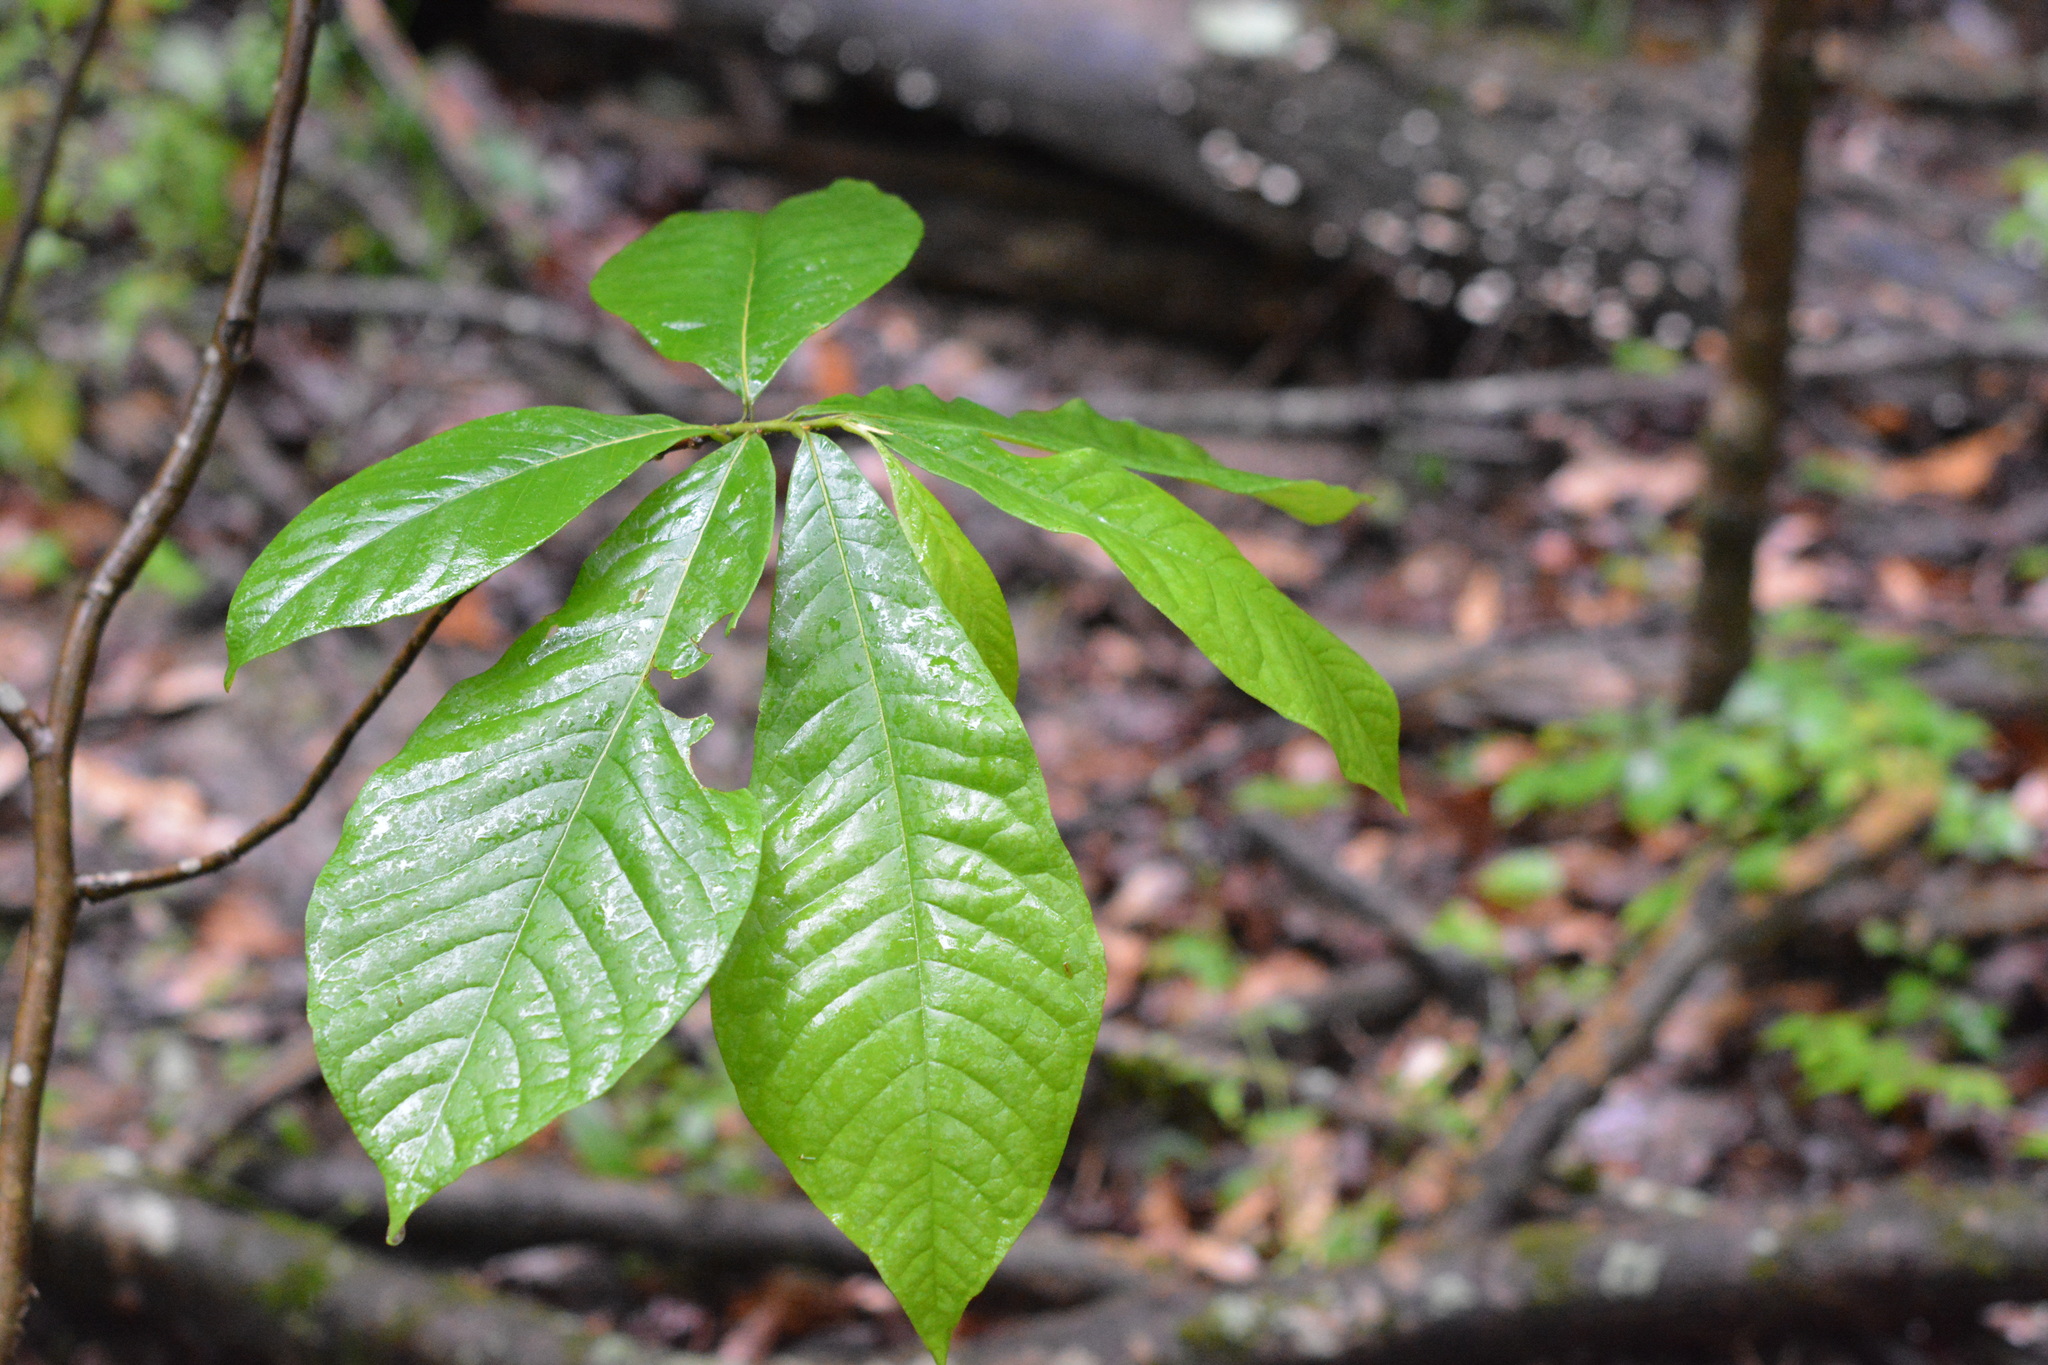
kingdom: Plantae
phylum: Tracheophyta
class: Magnoliopsida
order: Magnoliales
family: Annonaceae
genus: Asimina
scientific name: Asimina triloba
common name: Dog-banana
